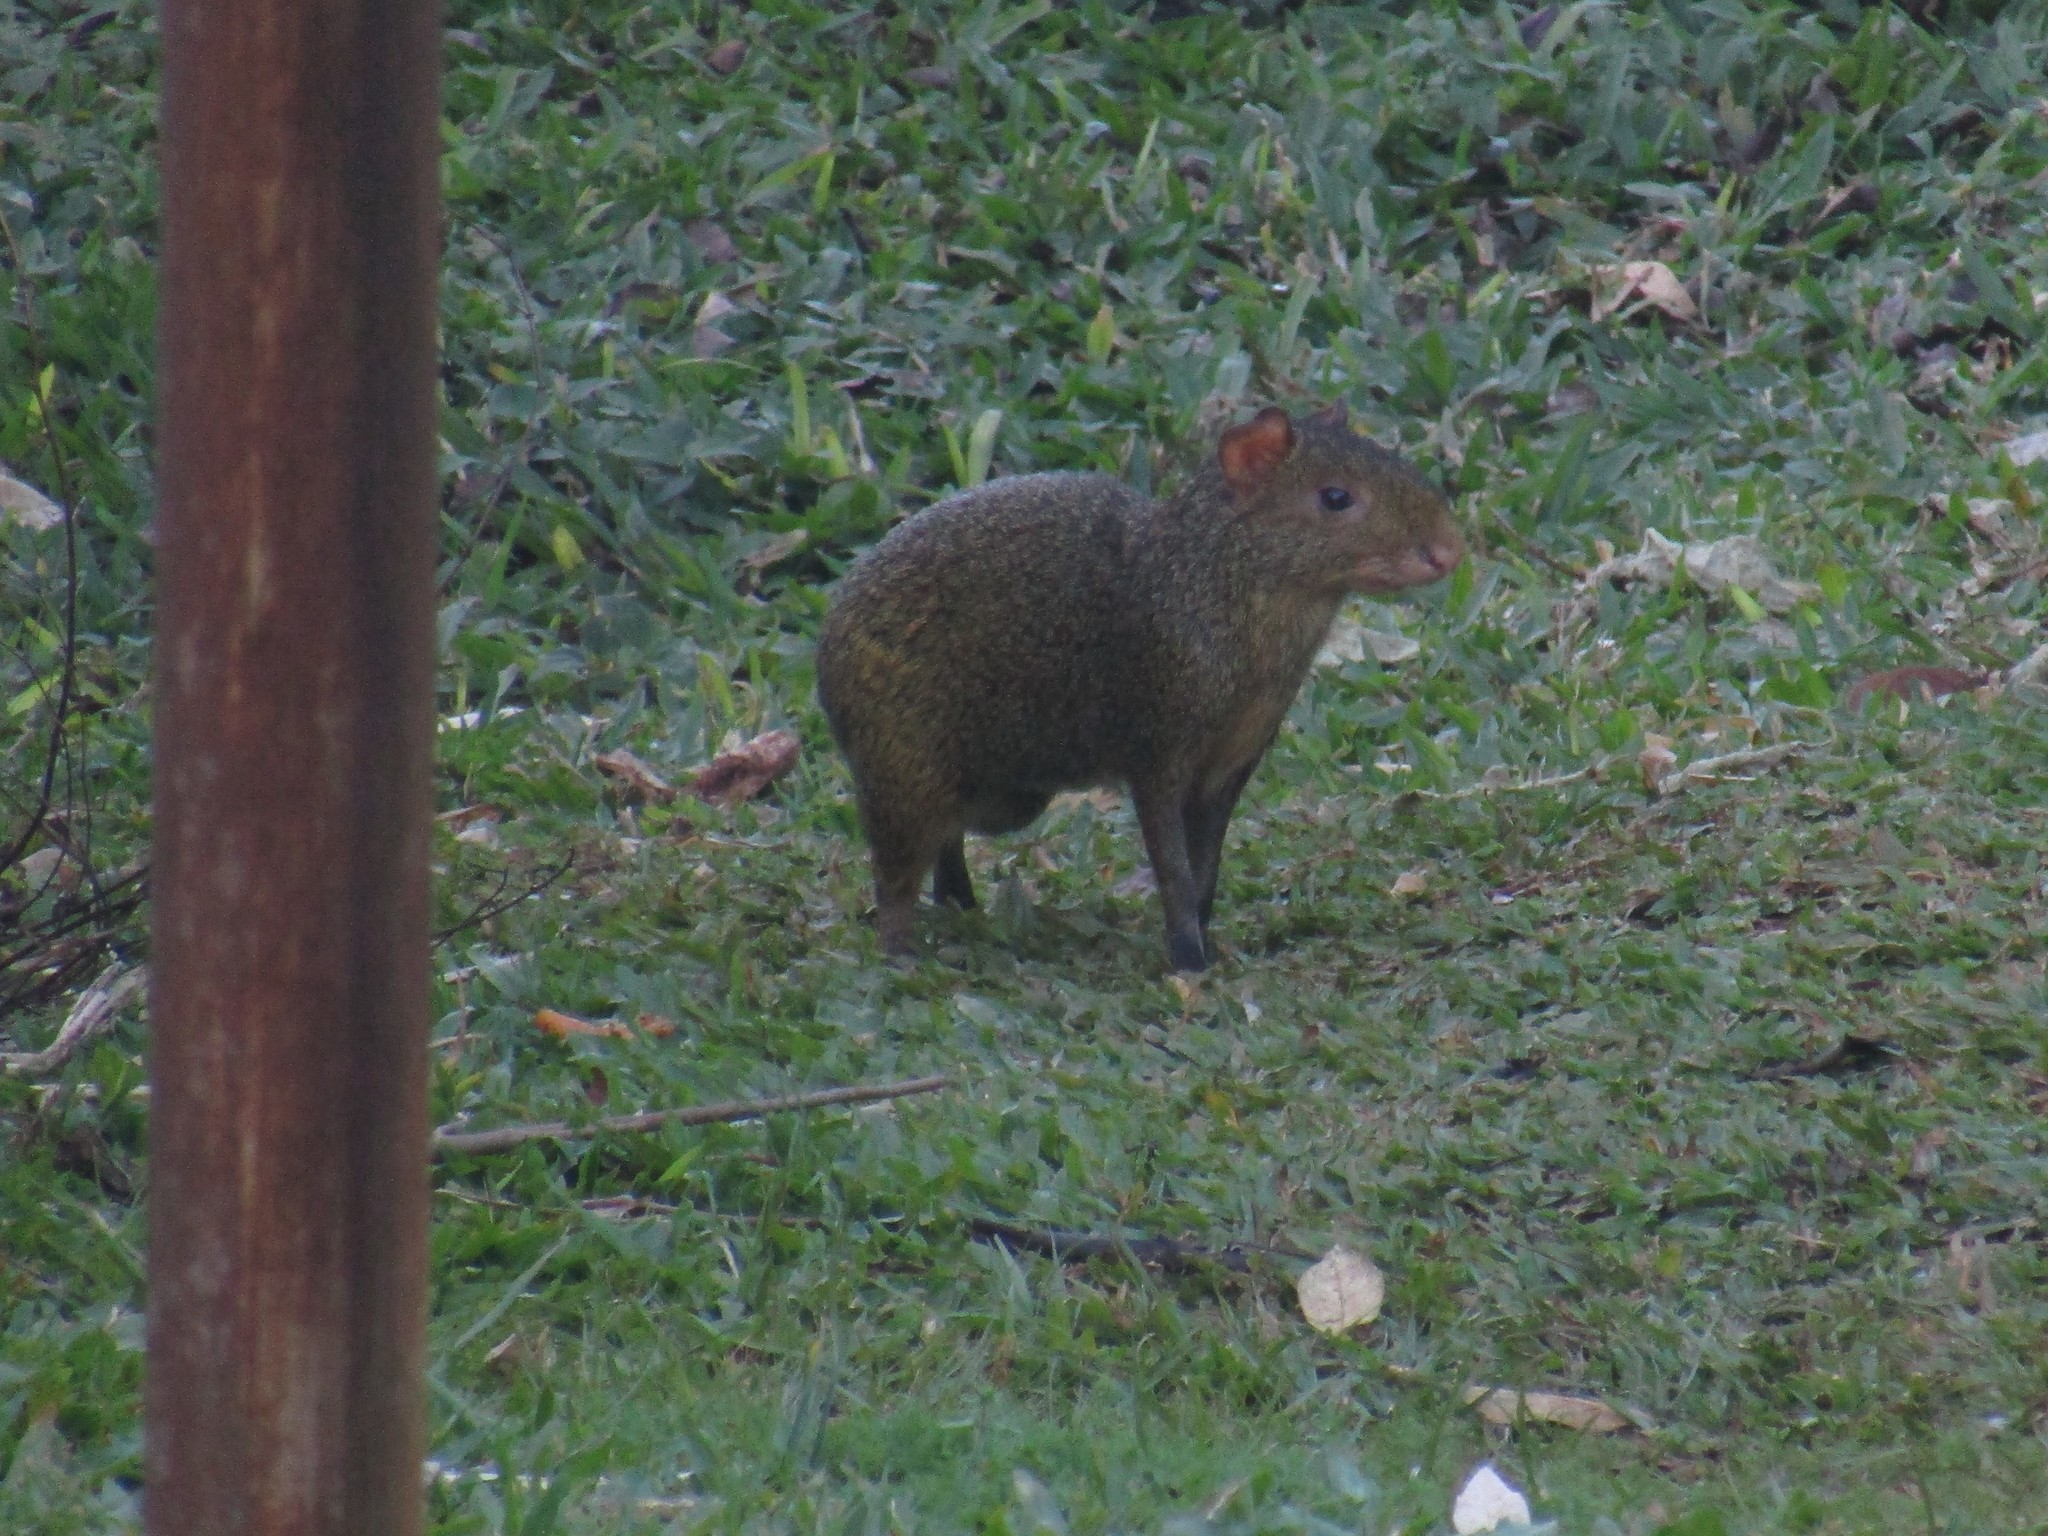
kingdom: Animalia
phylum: Chordata
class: Mammalia
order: Rodentia
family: Dasyproctidae
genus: Dasyprocta
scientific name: Dasyprocta azarae
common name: Azara's agouti
